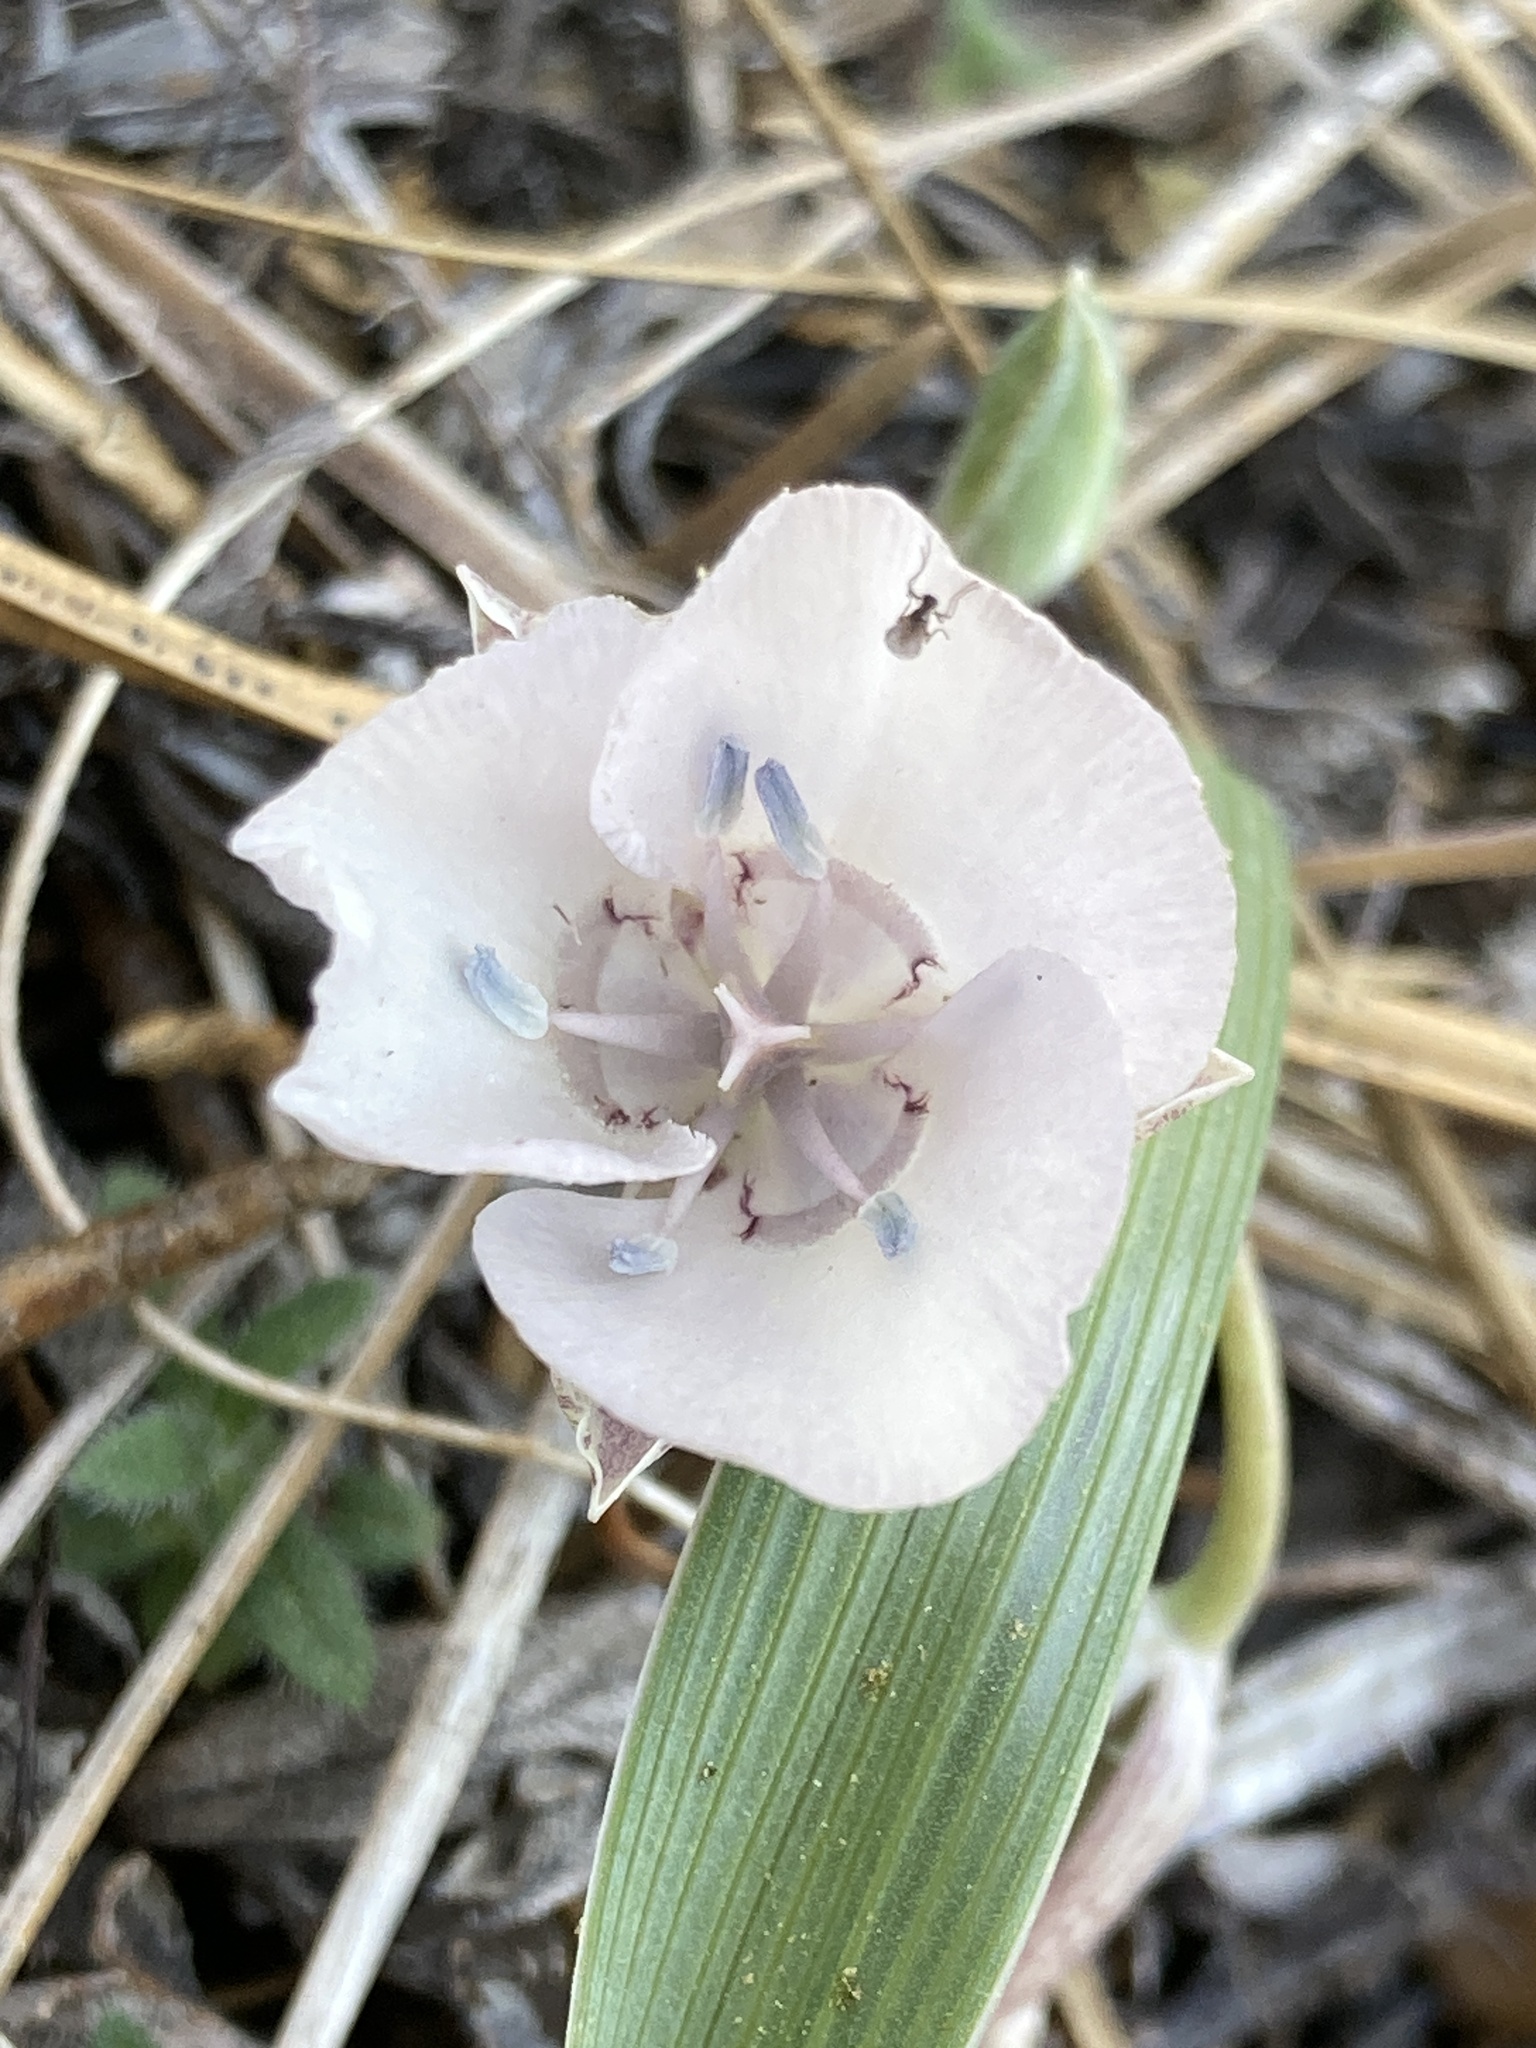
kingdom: Plantae
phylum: Tracheophyta
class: Liliopsida
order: Liliales
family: Liliaceae
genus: Calochortus
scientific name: Calochortus minimus
